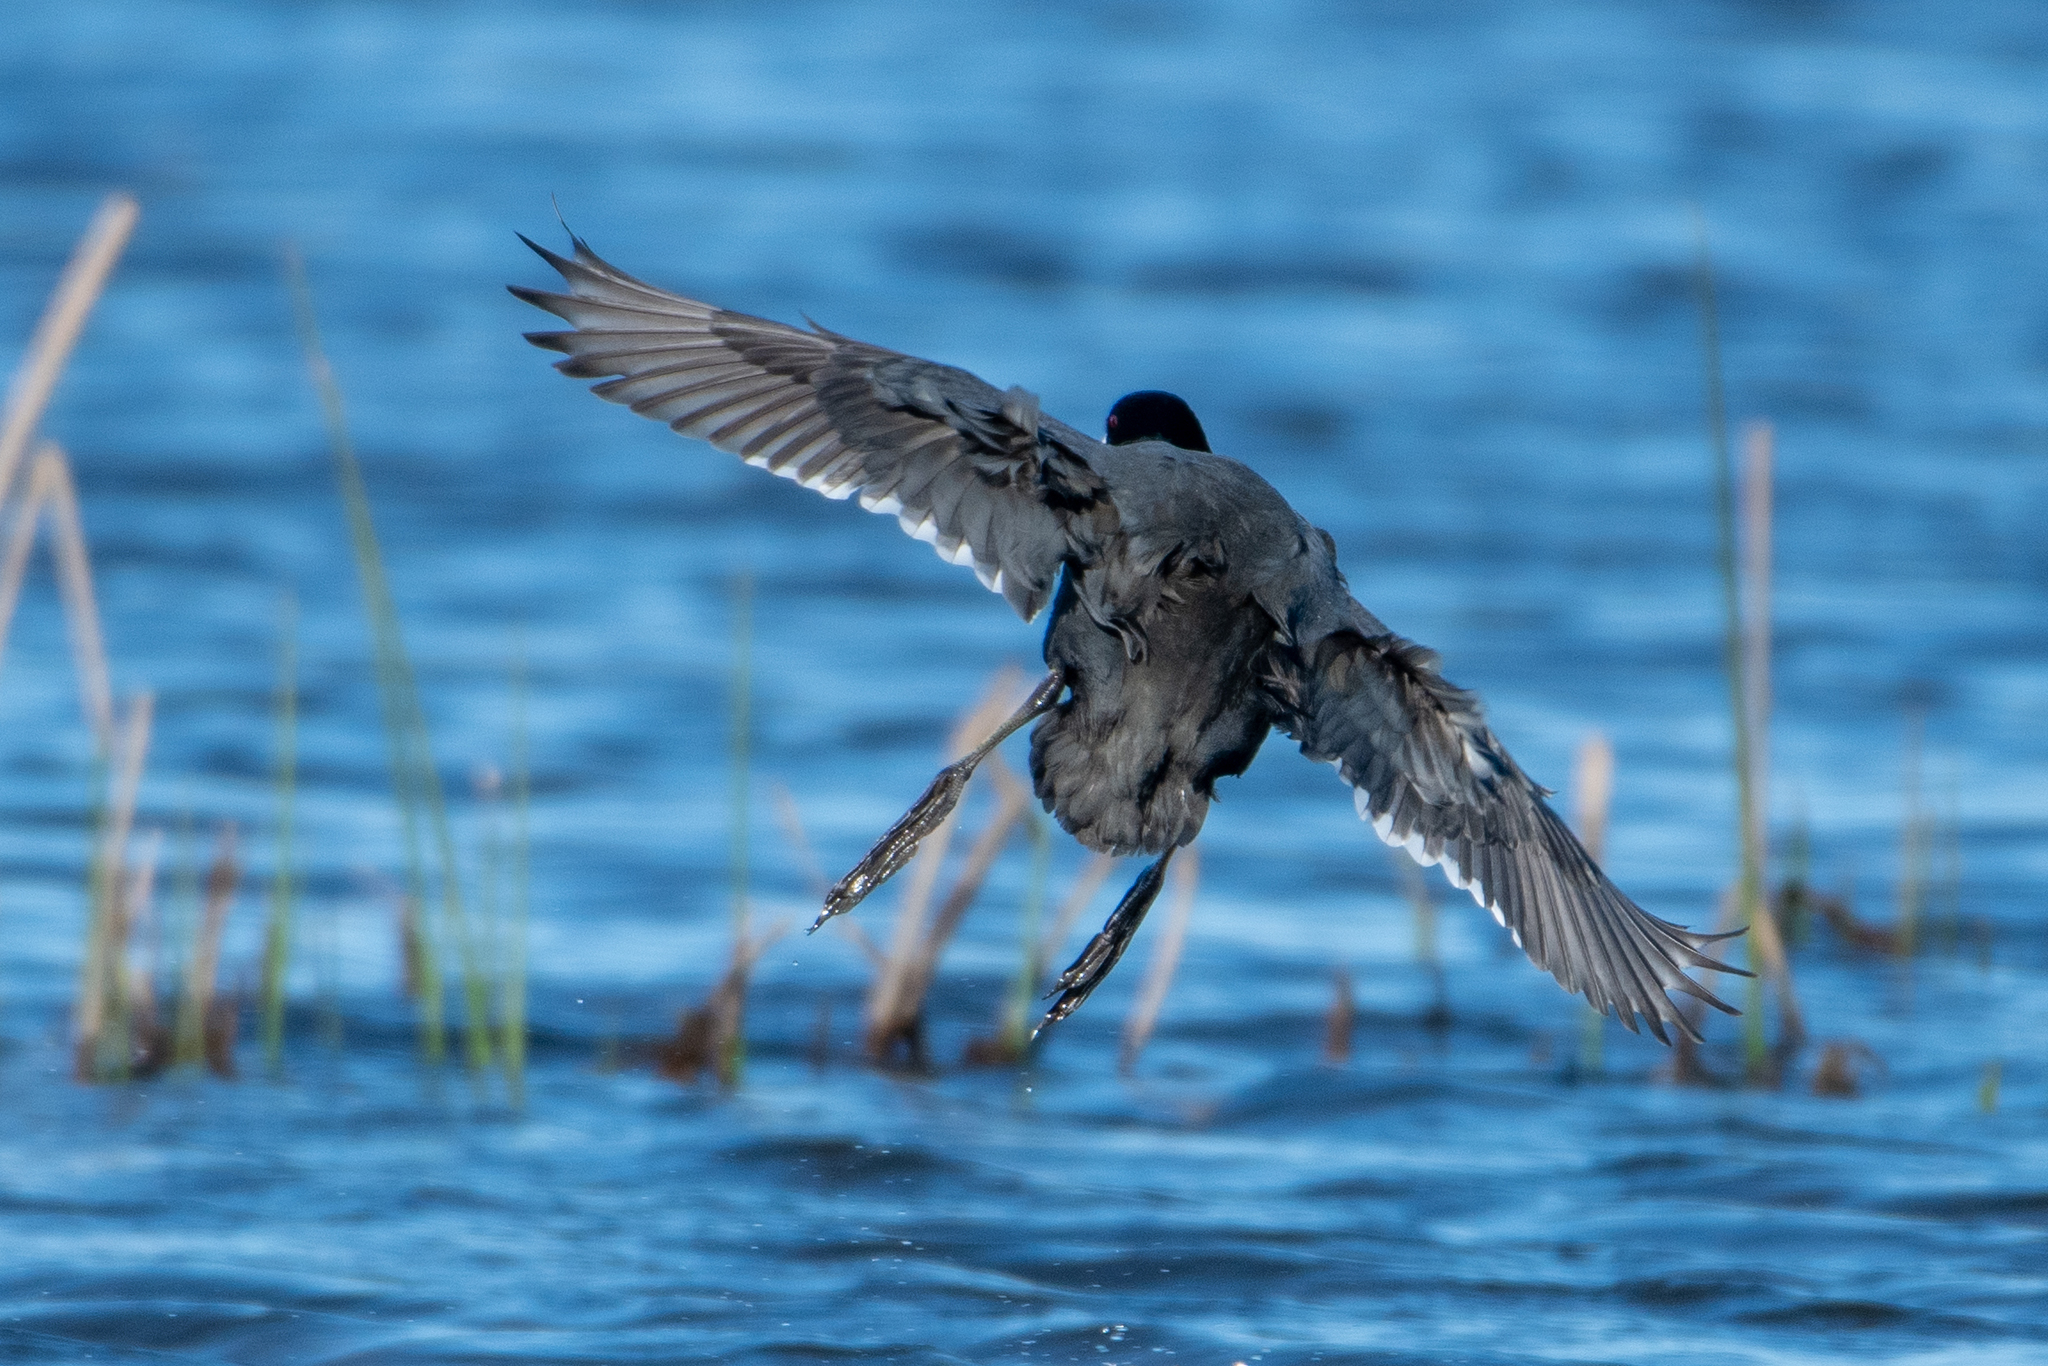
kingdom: Animalia
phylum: Chordata
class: Aves
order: Gruiformes
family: Rallidae
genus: Fulica
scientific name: Fulica americana
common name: American coot
